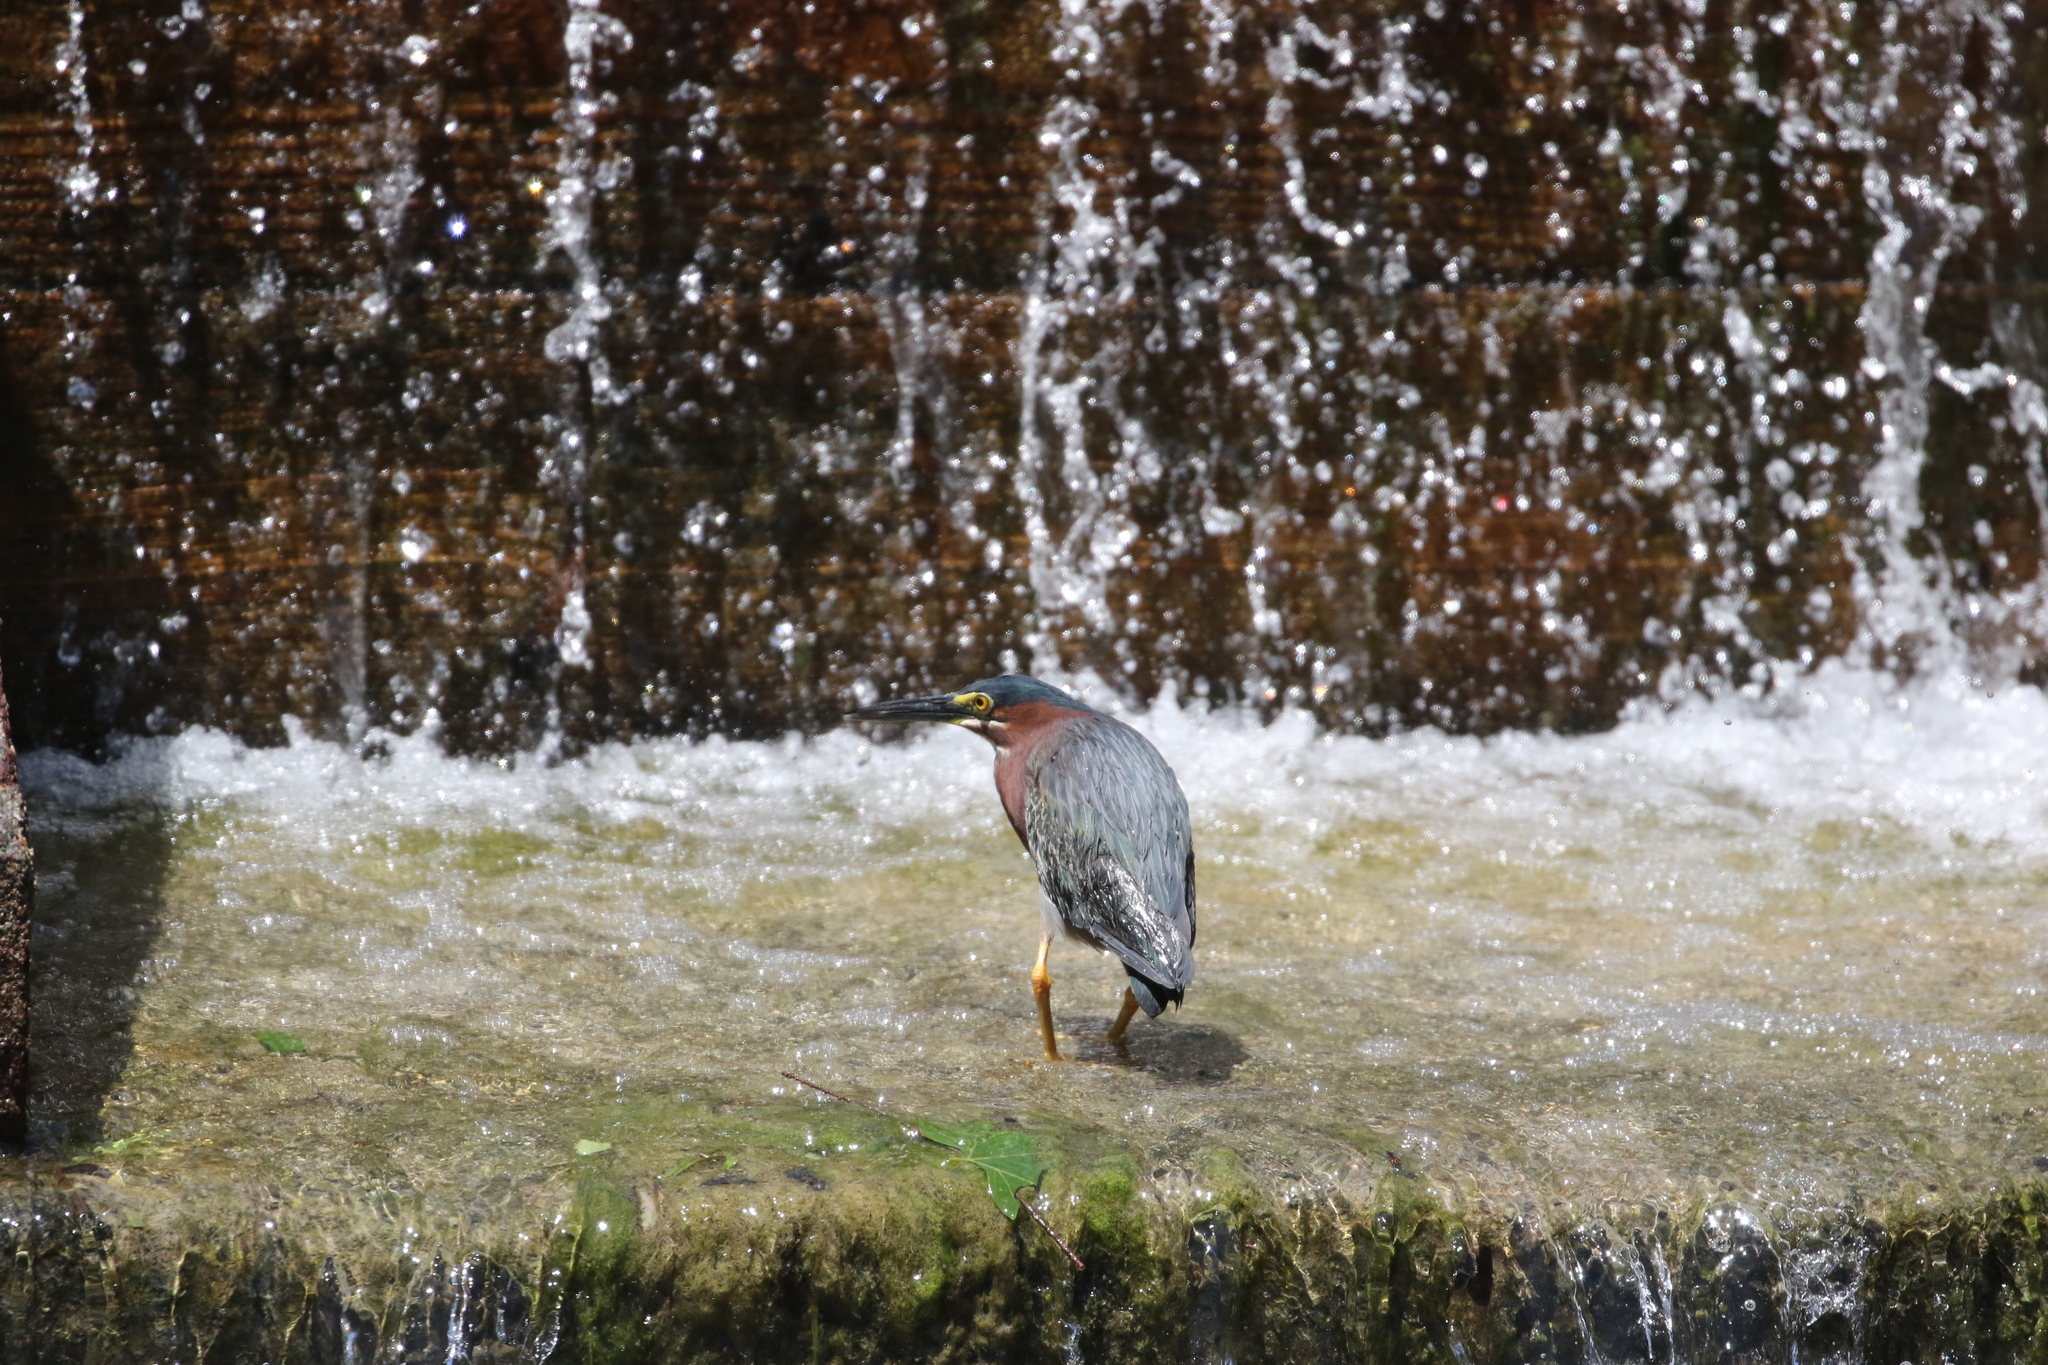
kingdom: Animalia
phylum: Chordata
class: Aves
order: Pelecaniformes
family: Ardeidae
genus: Butorides
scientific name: Butorides virescens
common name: Green heron
